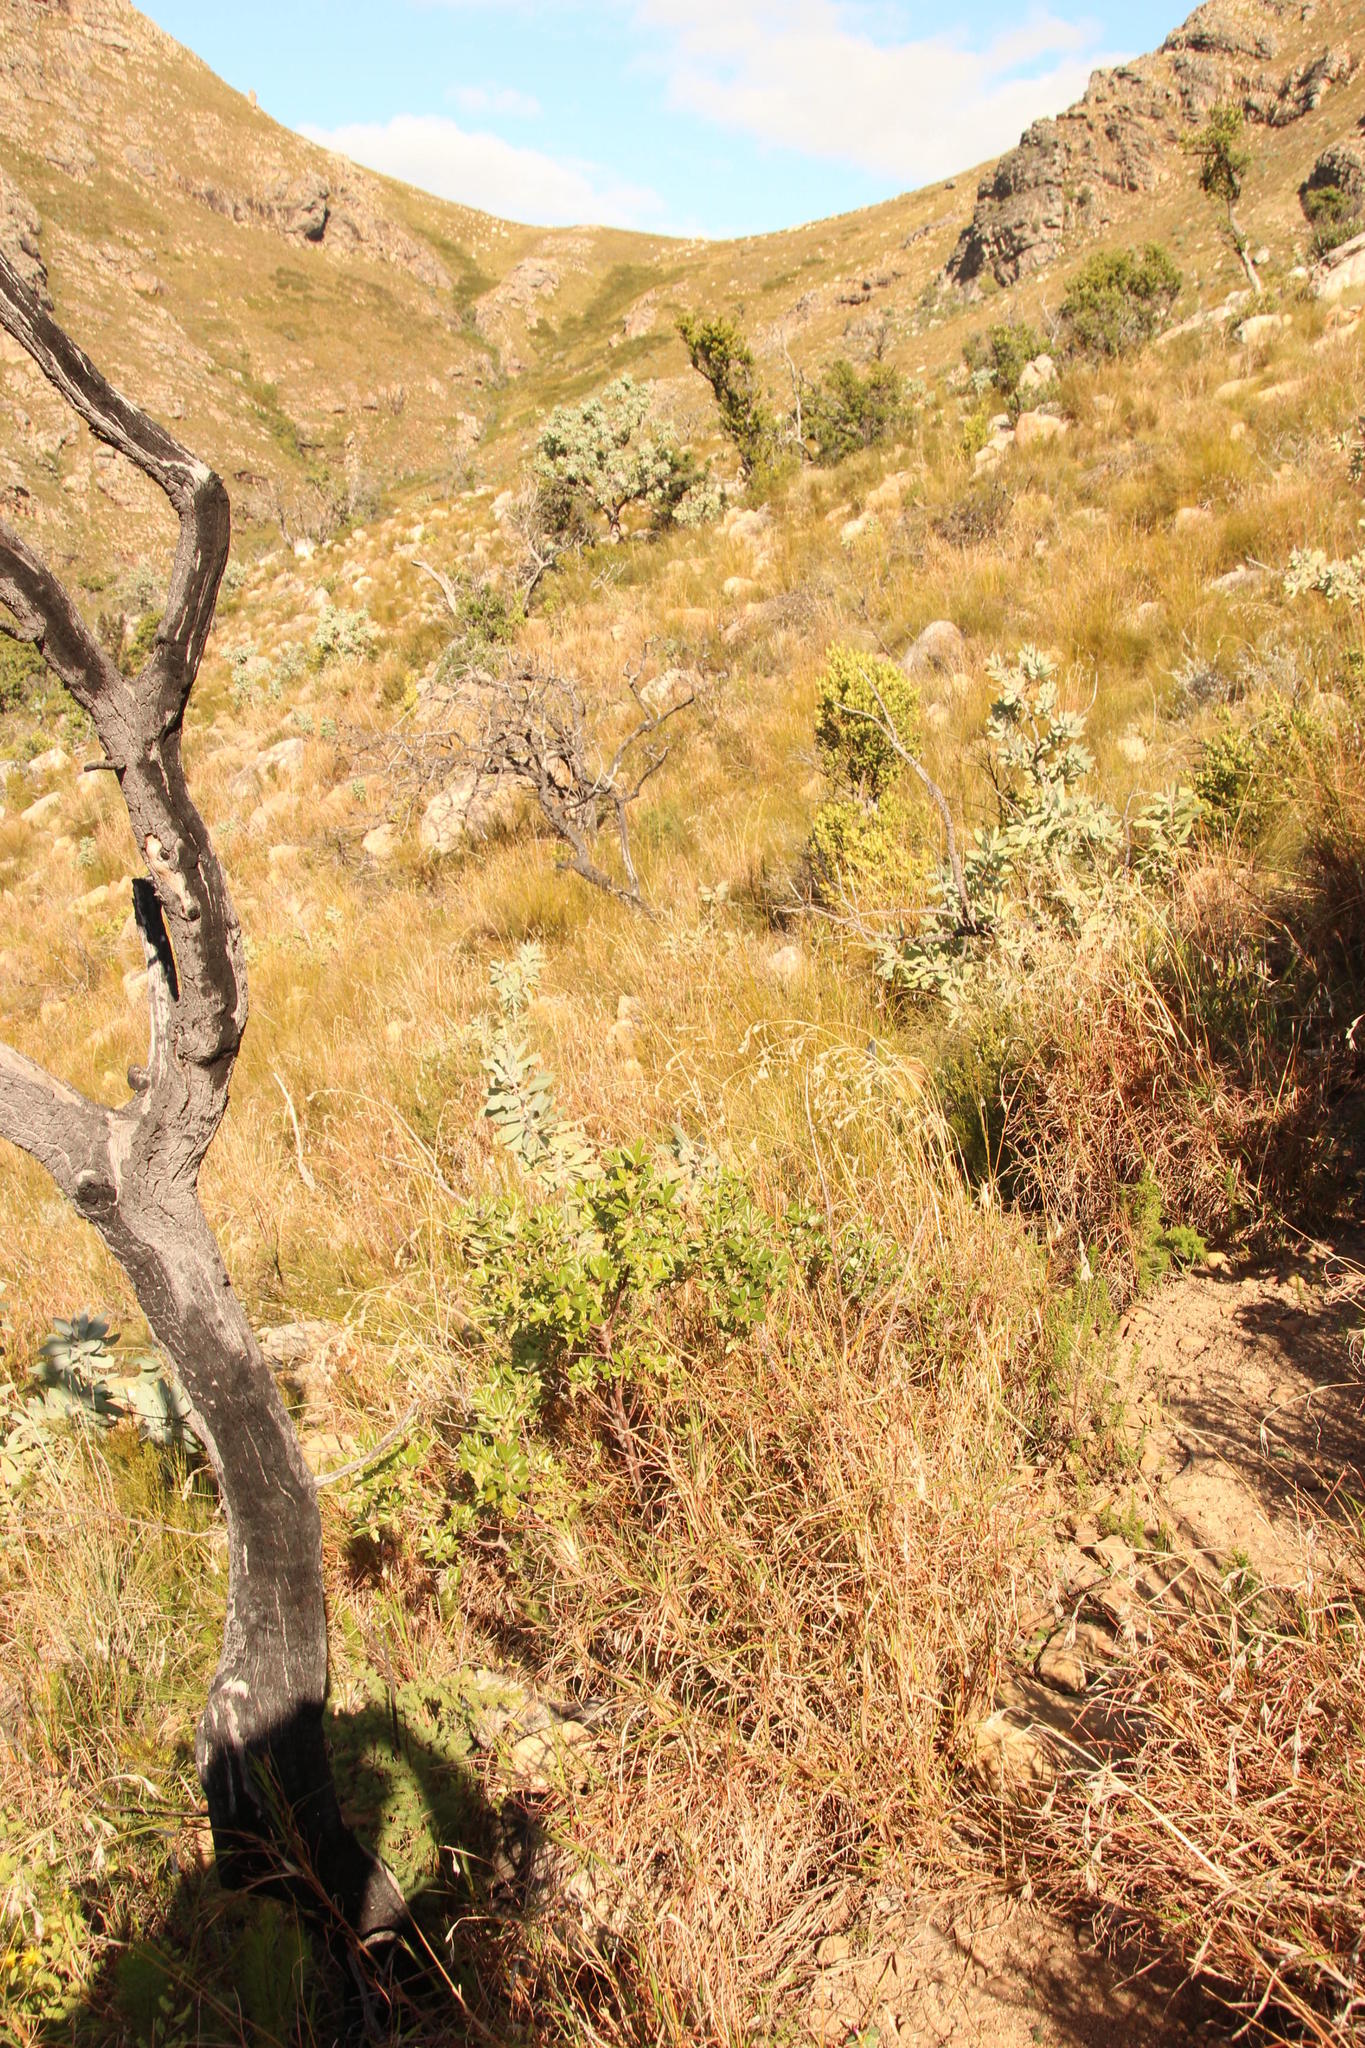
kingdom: Plantae
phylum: Tracheophyta
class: Magnoliopsida
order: Sapindales
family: Anacardiaceae
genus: Searsia
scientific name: Searsia tomentosa
